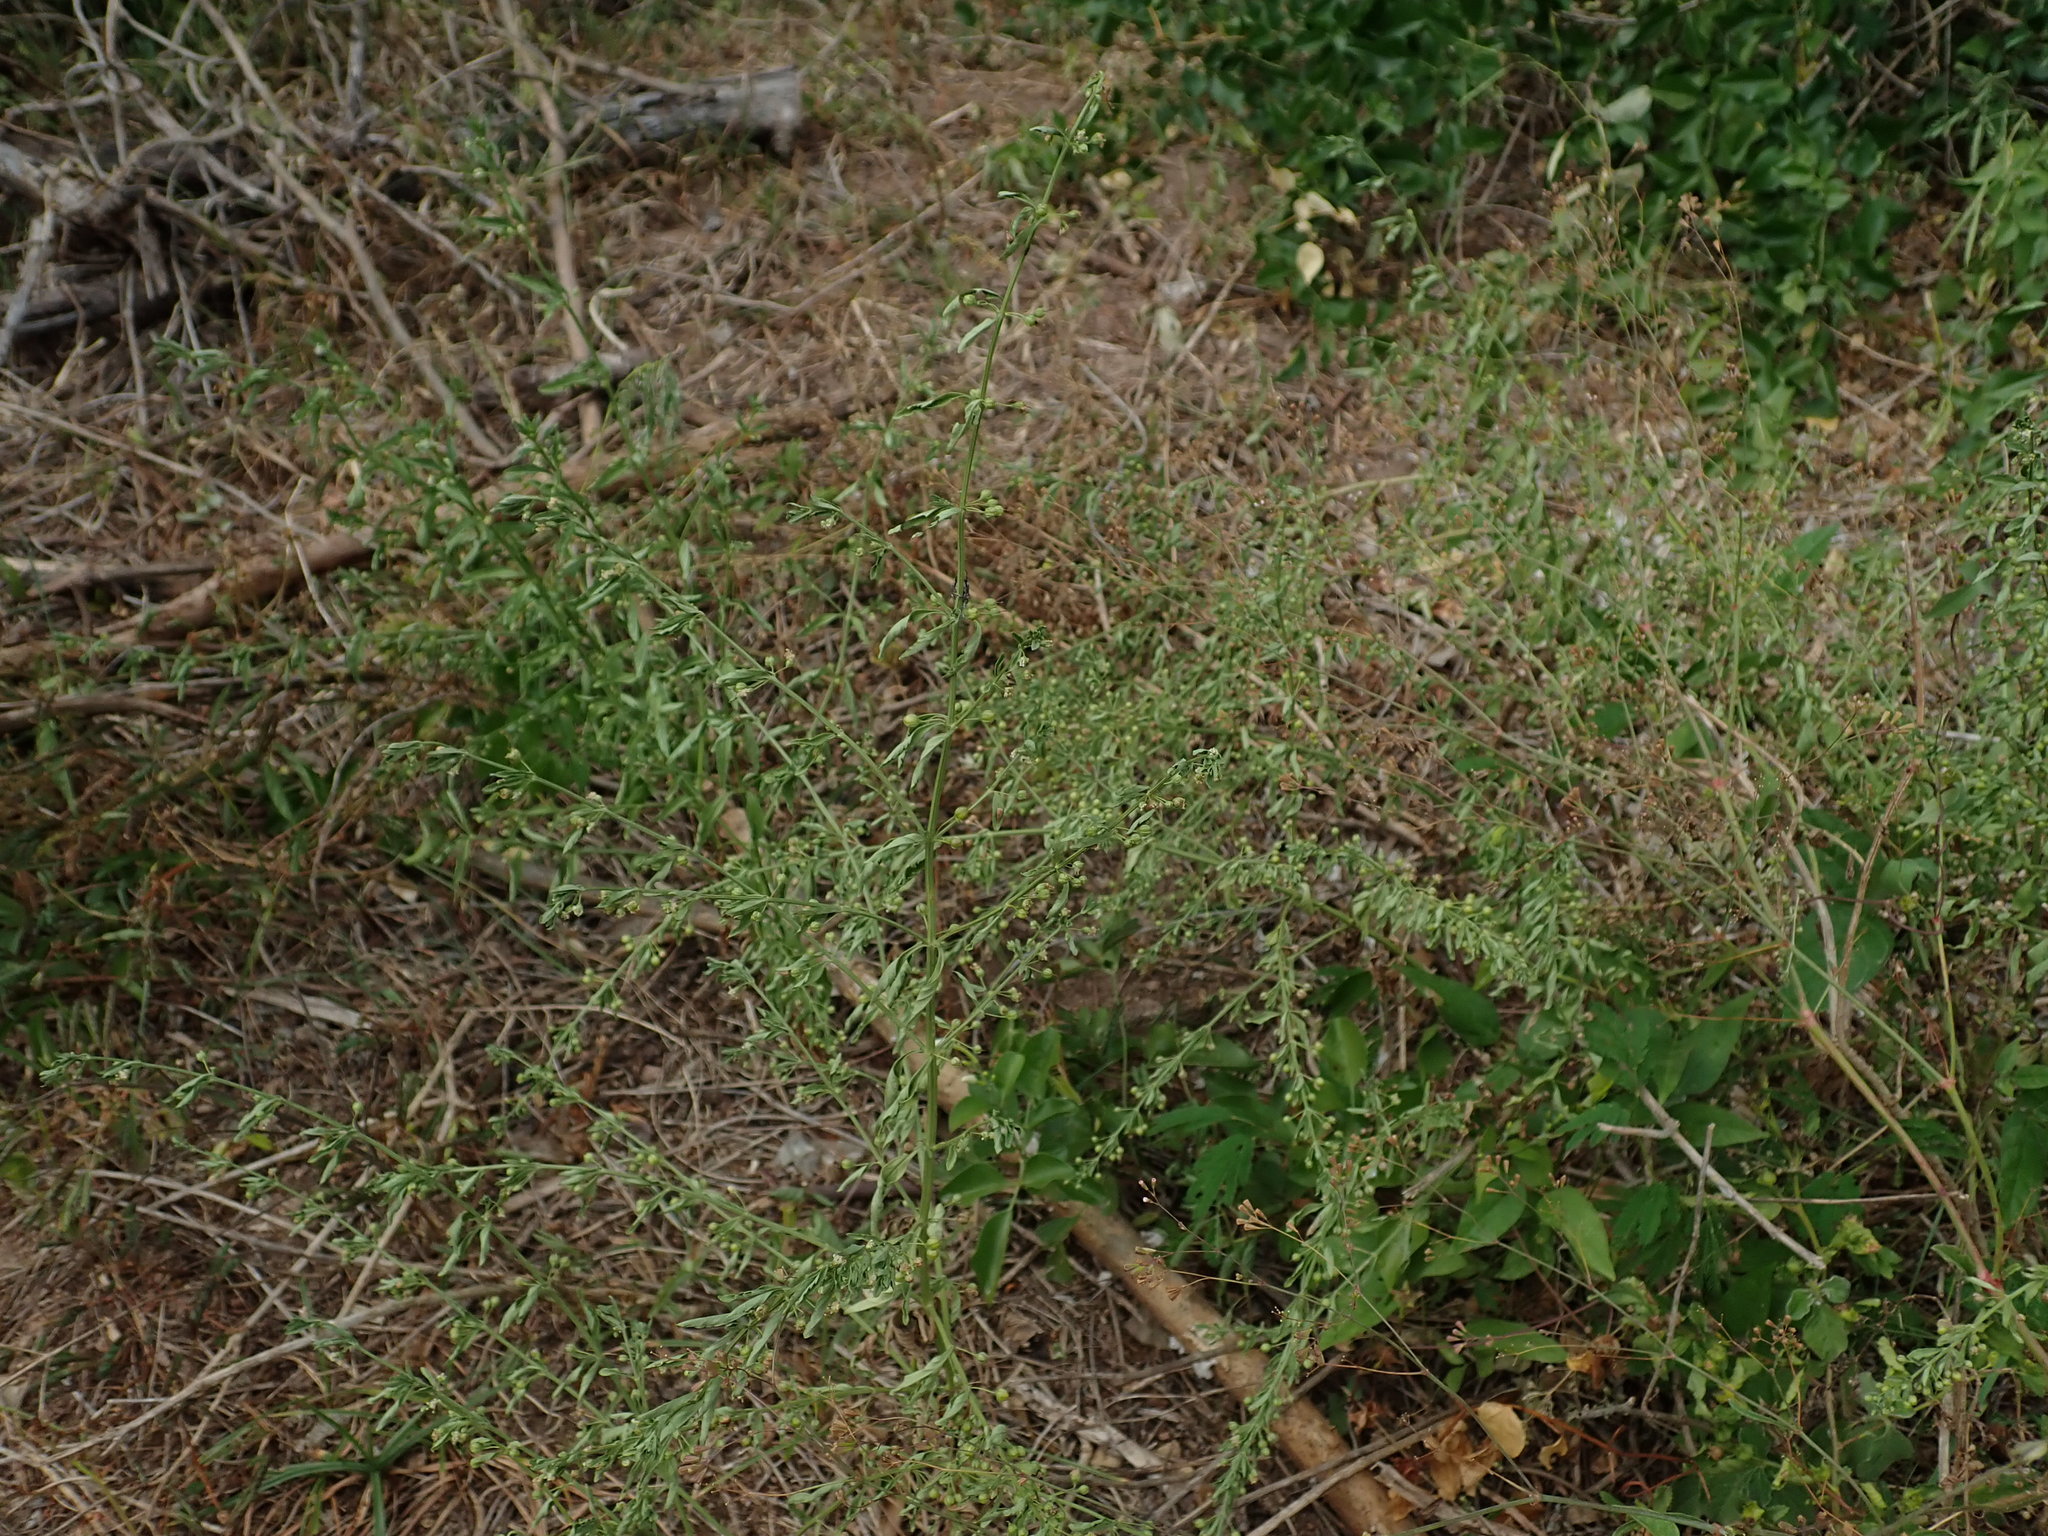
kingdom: Plantae
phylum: Tracheophyta
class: Magnoliopsida
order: Lamiales
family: Plantaginaceae
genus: Scoparia
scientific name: Scoparia dulcis
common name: Scoparia-weed
